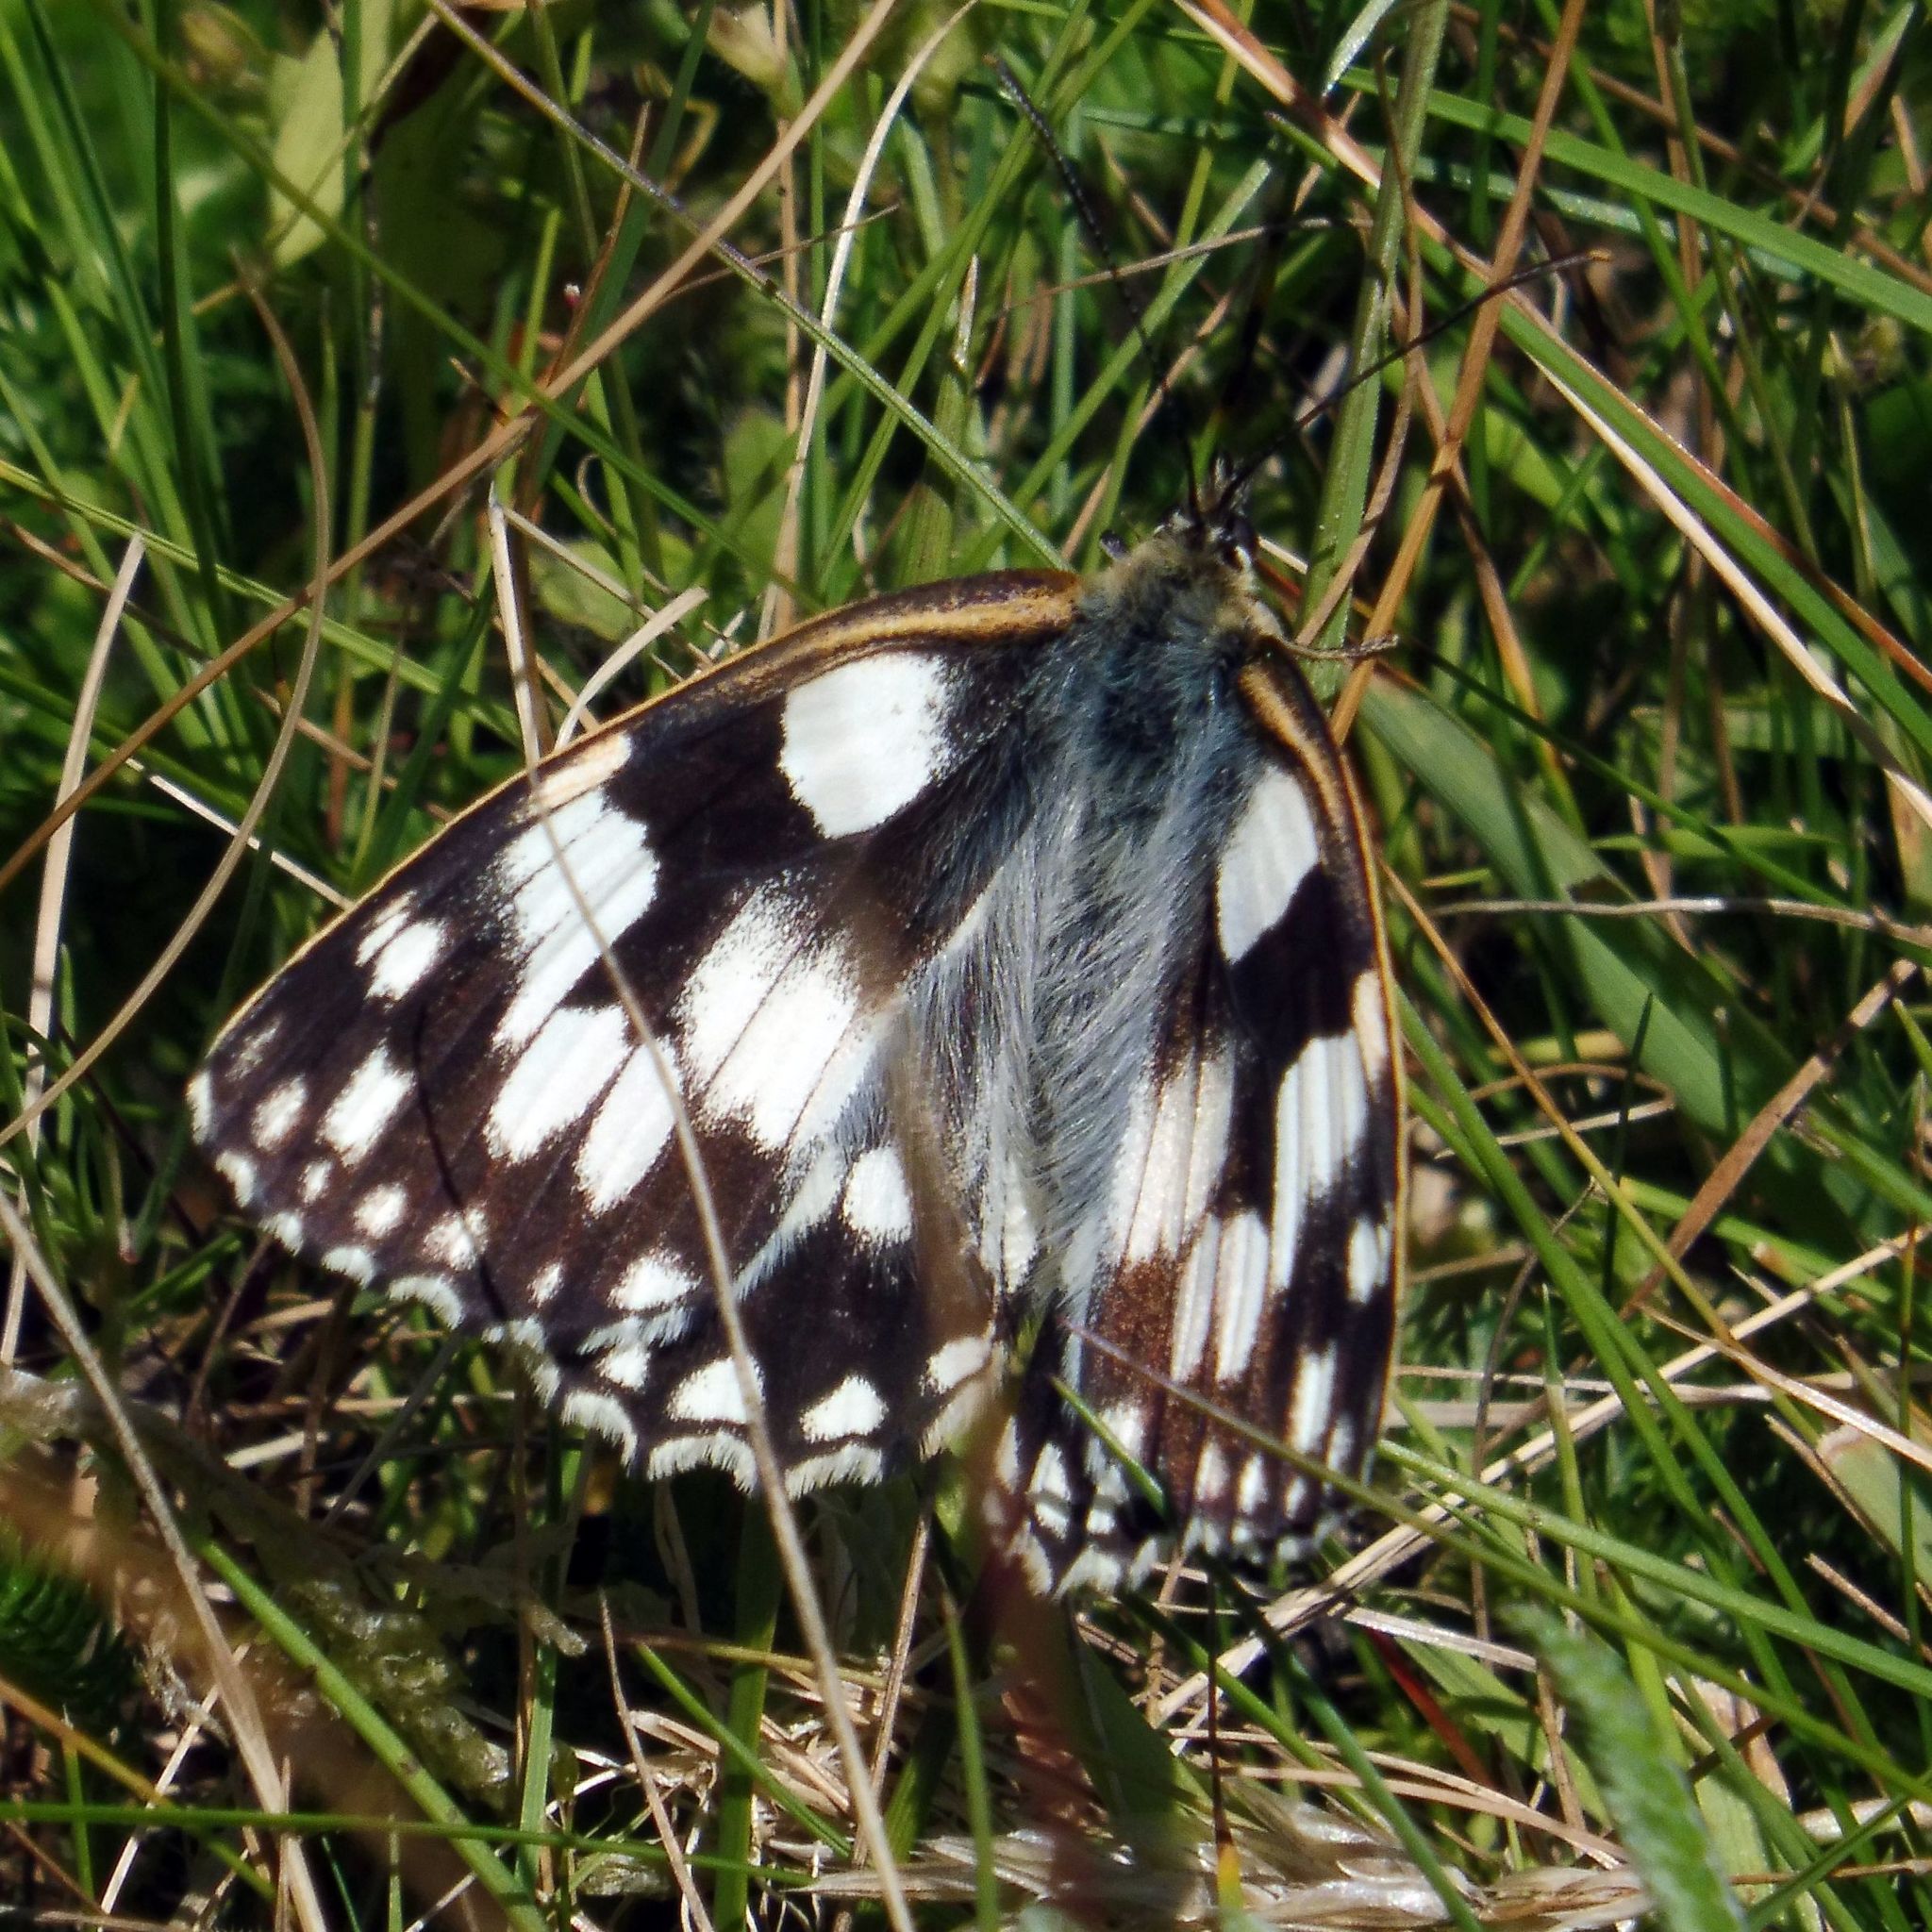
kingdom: Animalia
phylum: Arthropoda
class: Insecta
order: Lepidoptera
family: Nymphalidae
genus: Melanargia
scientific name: Melanargia galathea
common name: Marbled white
